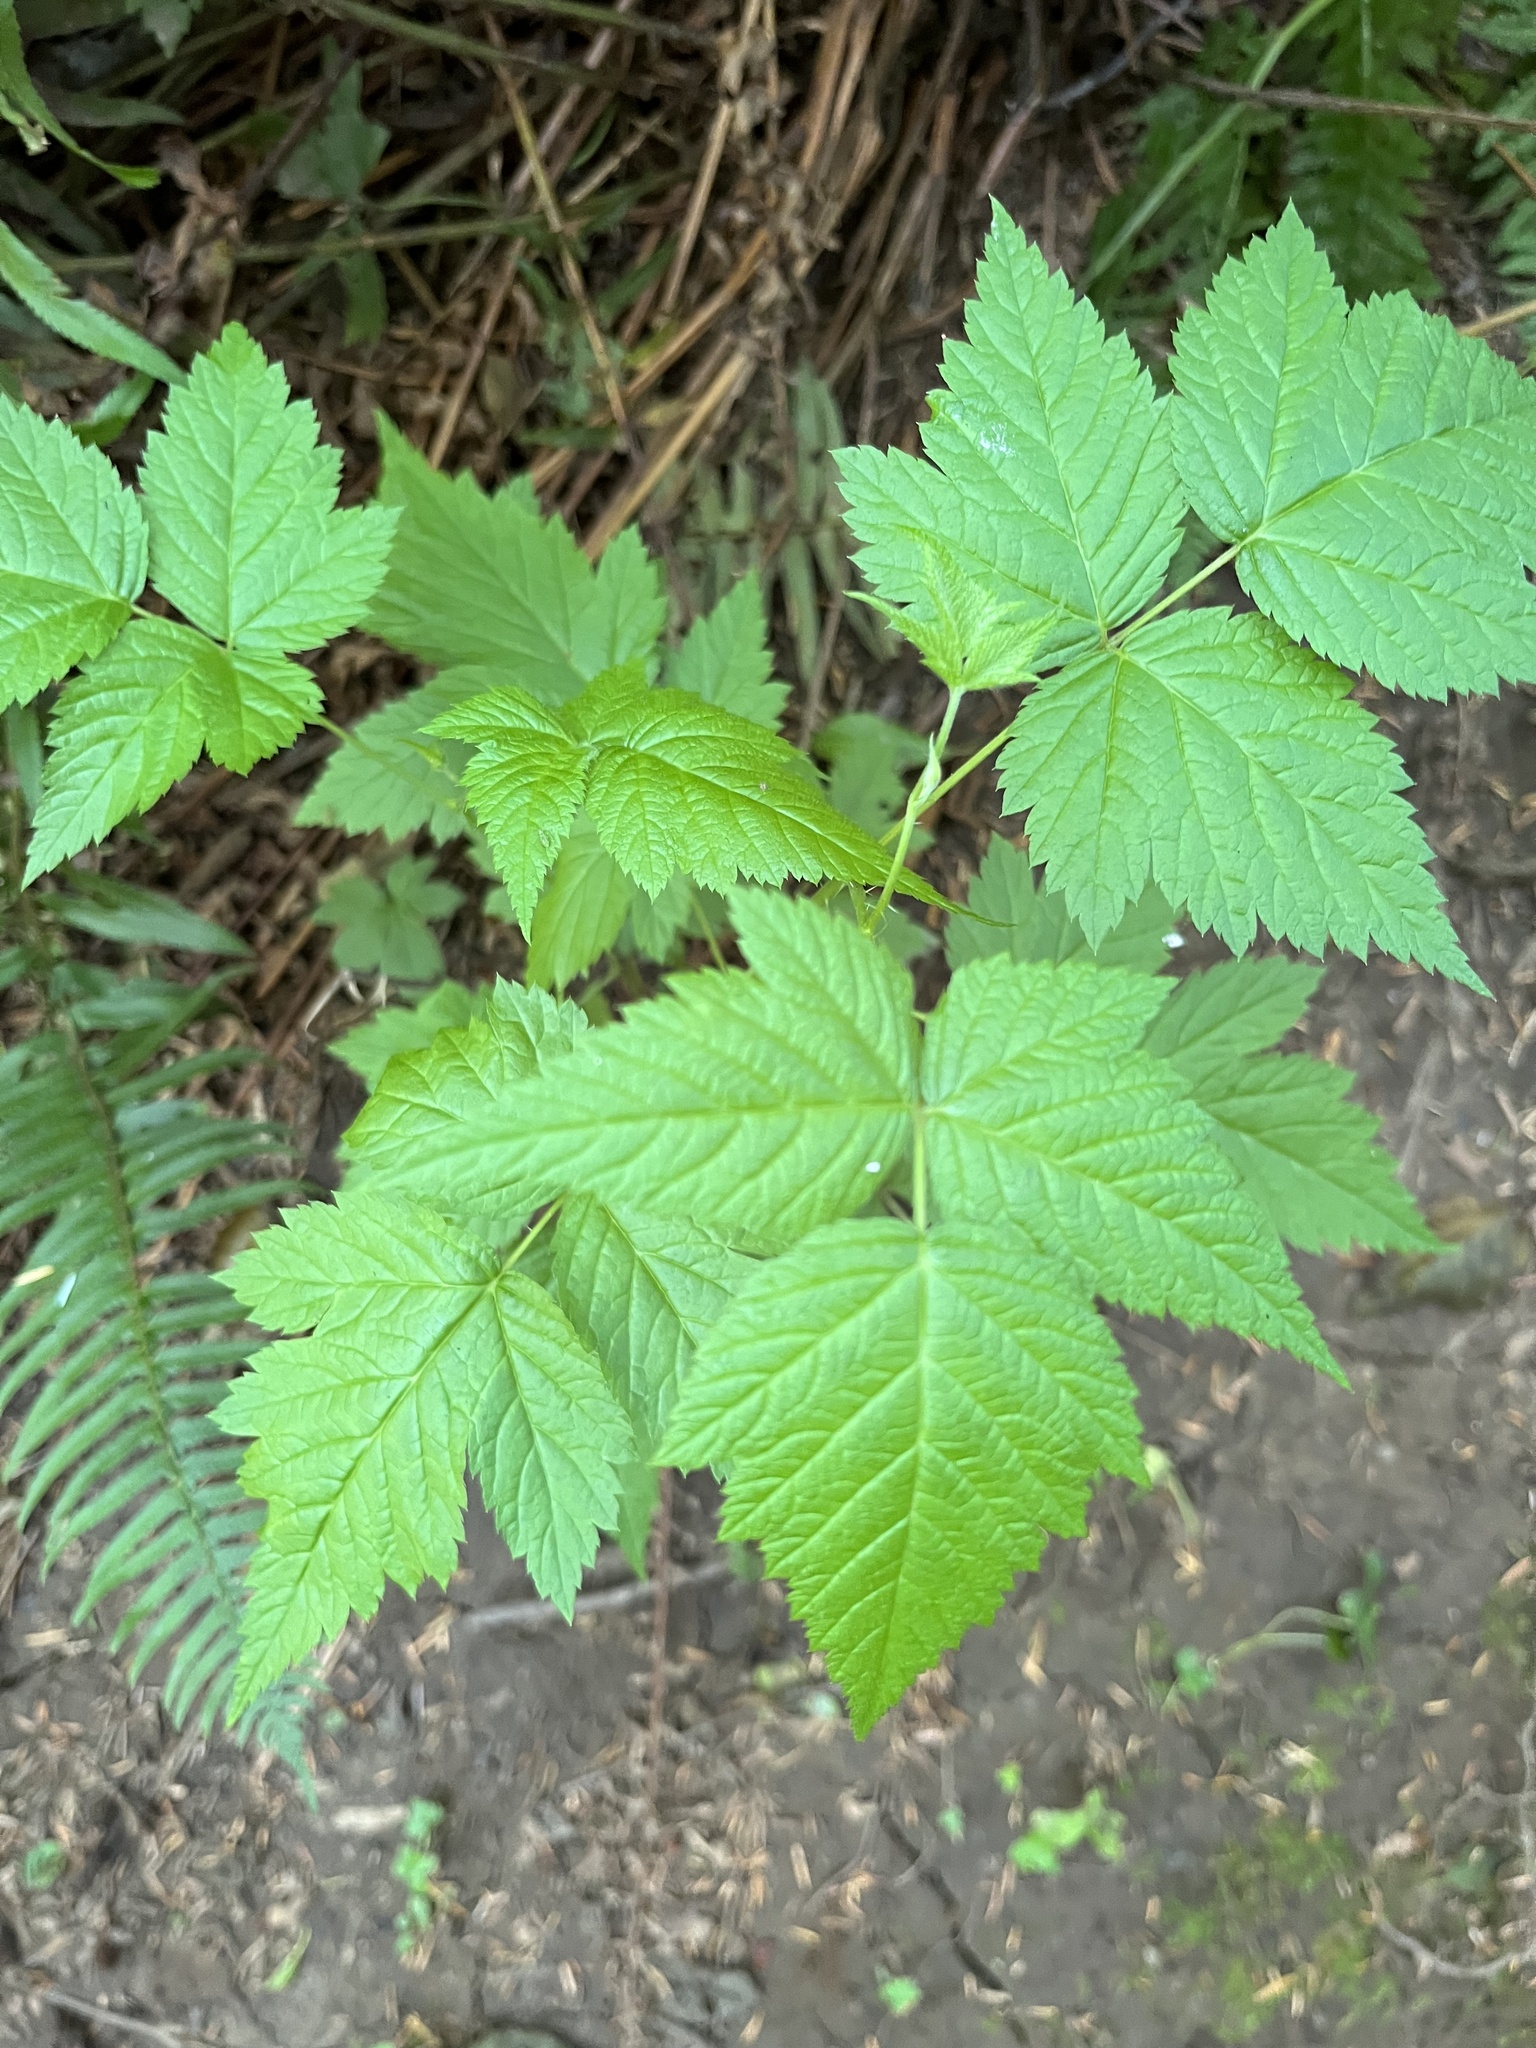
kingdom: Plantae
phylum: Tracheophyta
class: Magnoliopsida
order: Rosales
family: Rosaceae
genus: Rubus
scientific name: Rubus spectabilis
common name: Salmonberry
